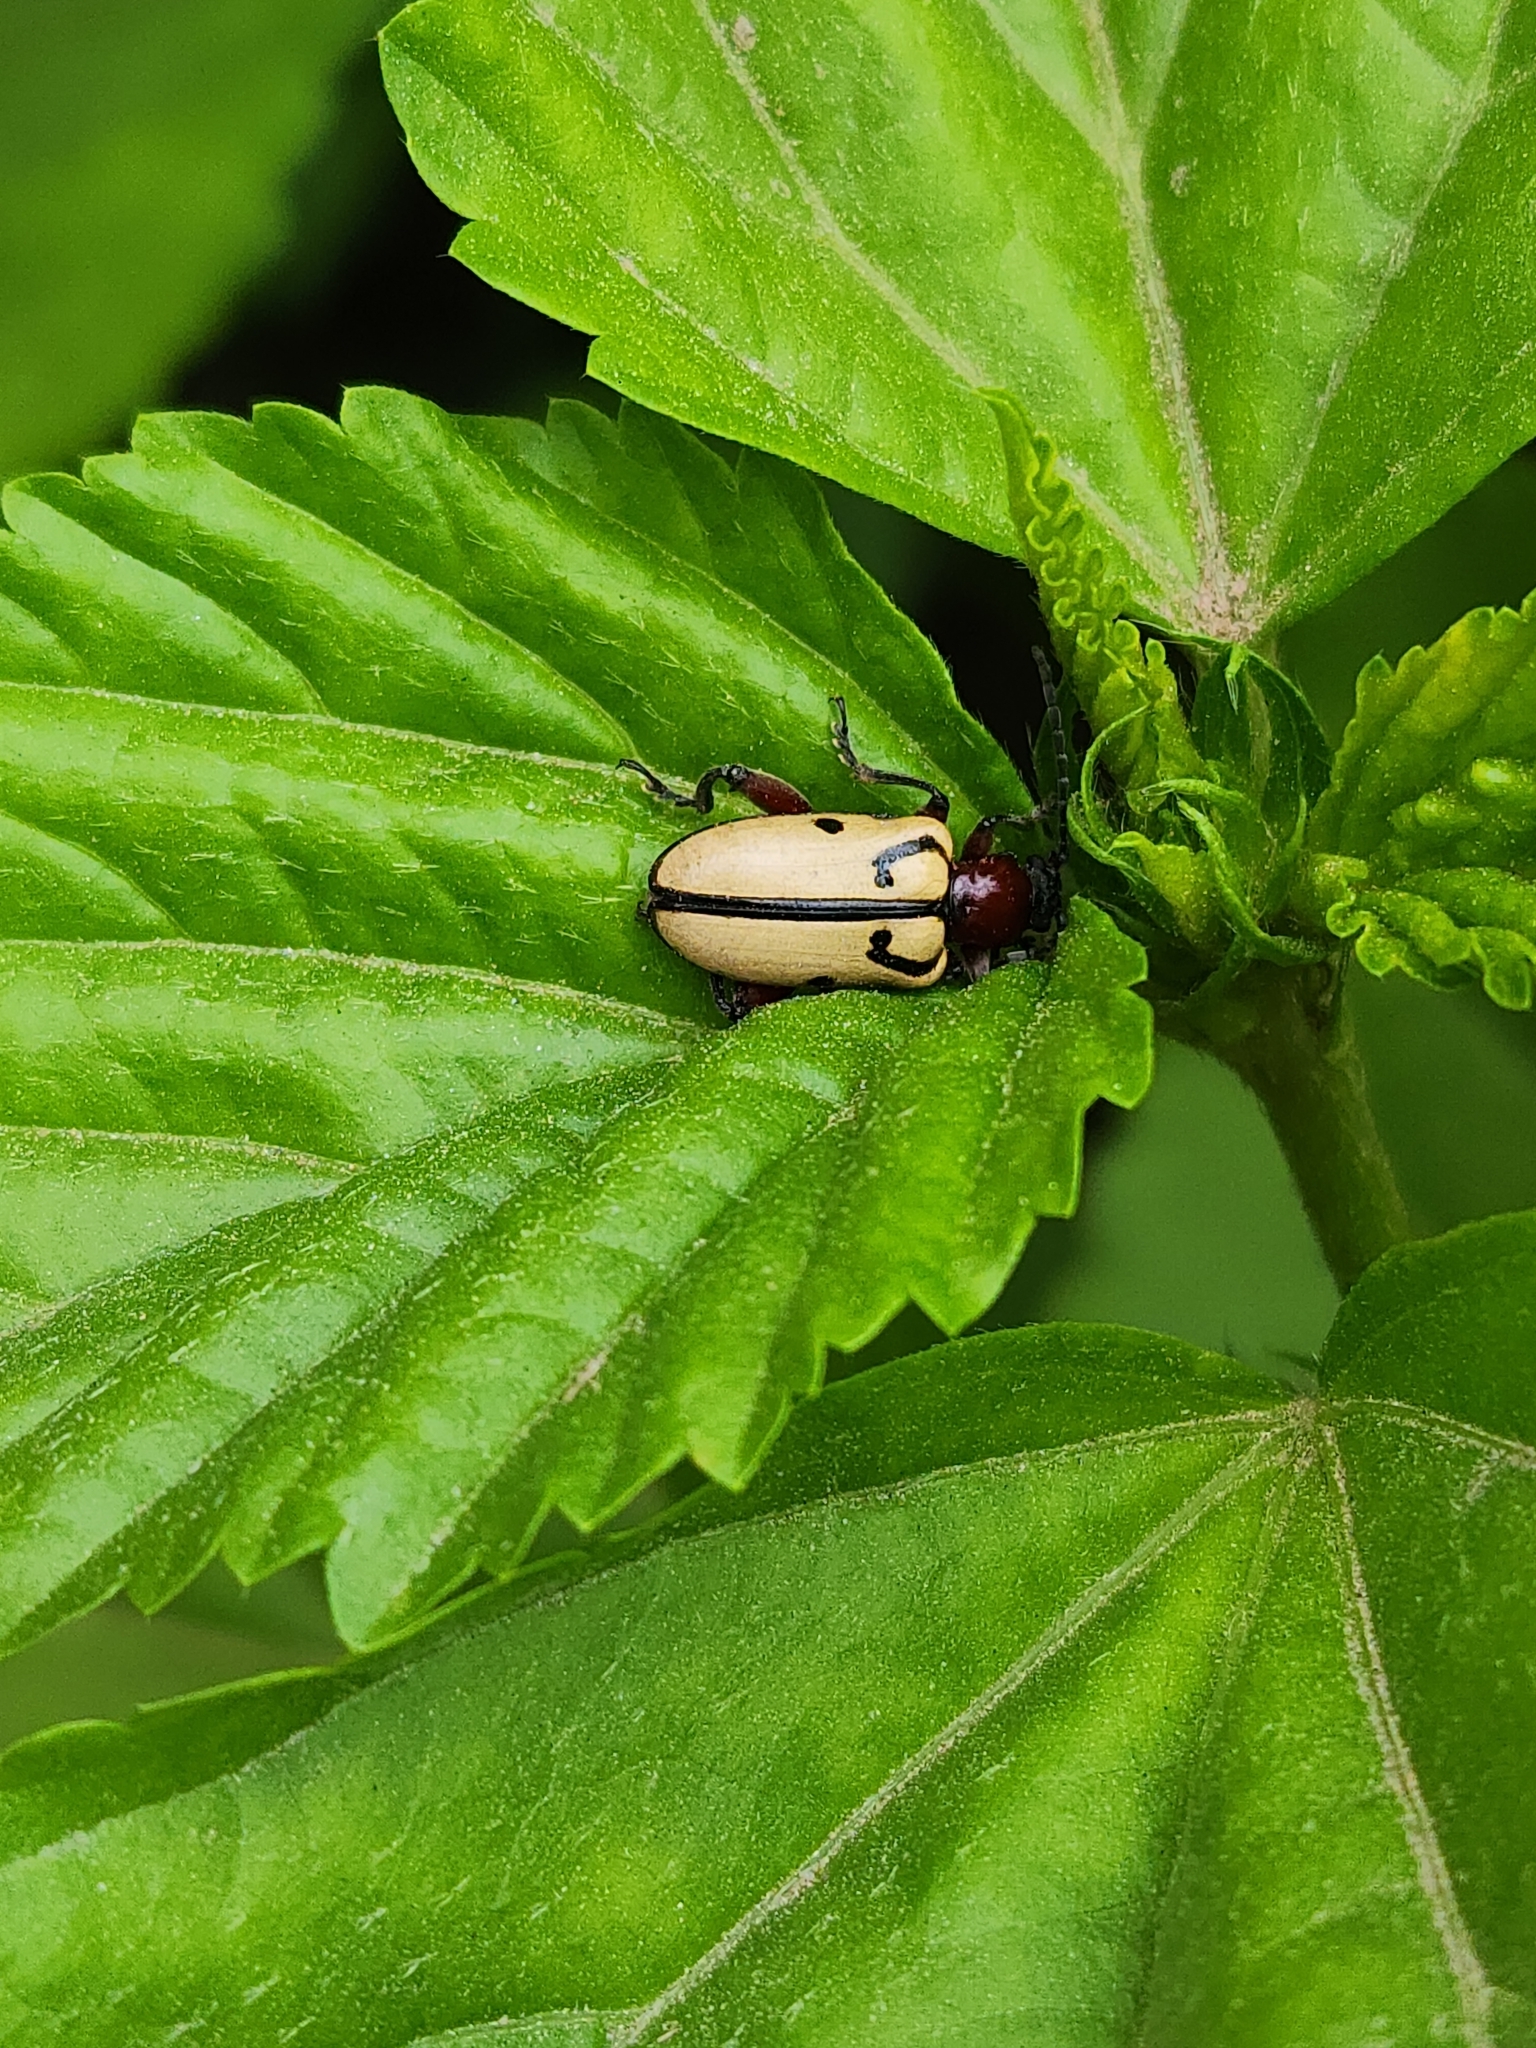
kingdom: Animalia
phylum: Arthropoda
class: Insecta
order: Coleoptera
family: Chrysomelidae
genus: Atalasis
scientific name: Atalasis
